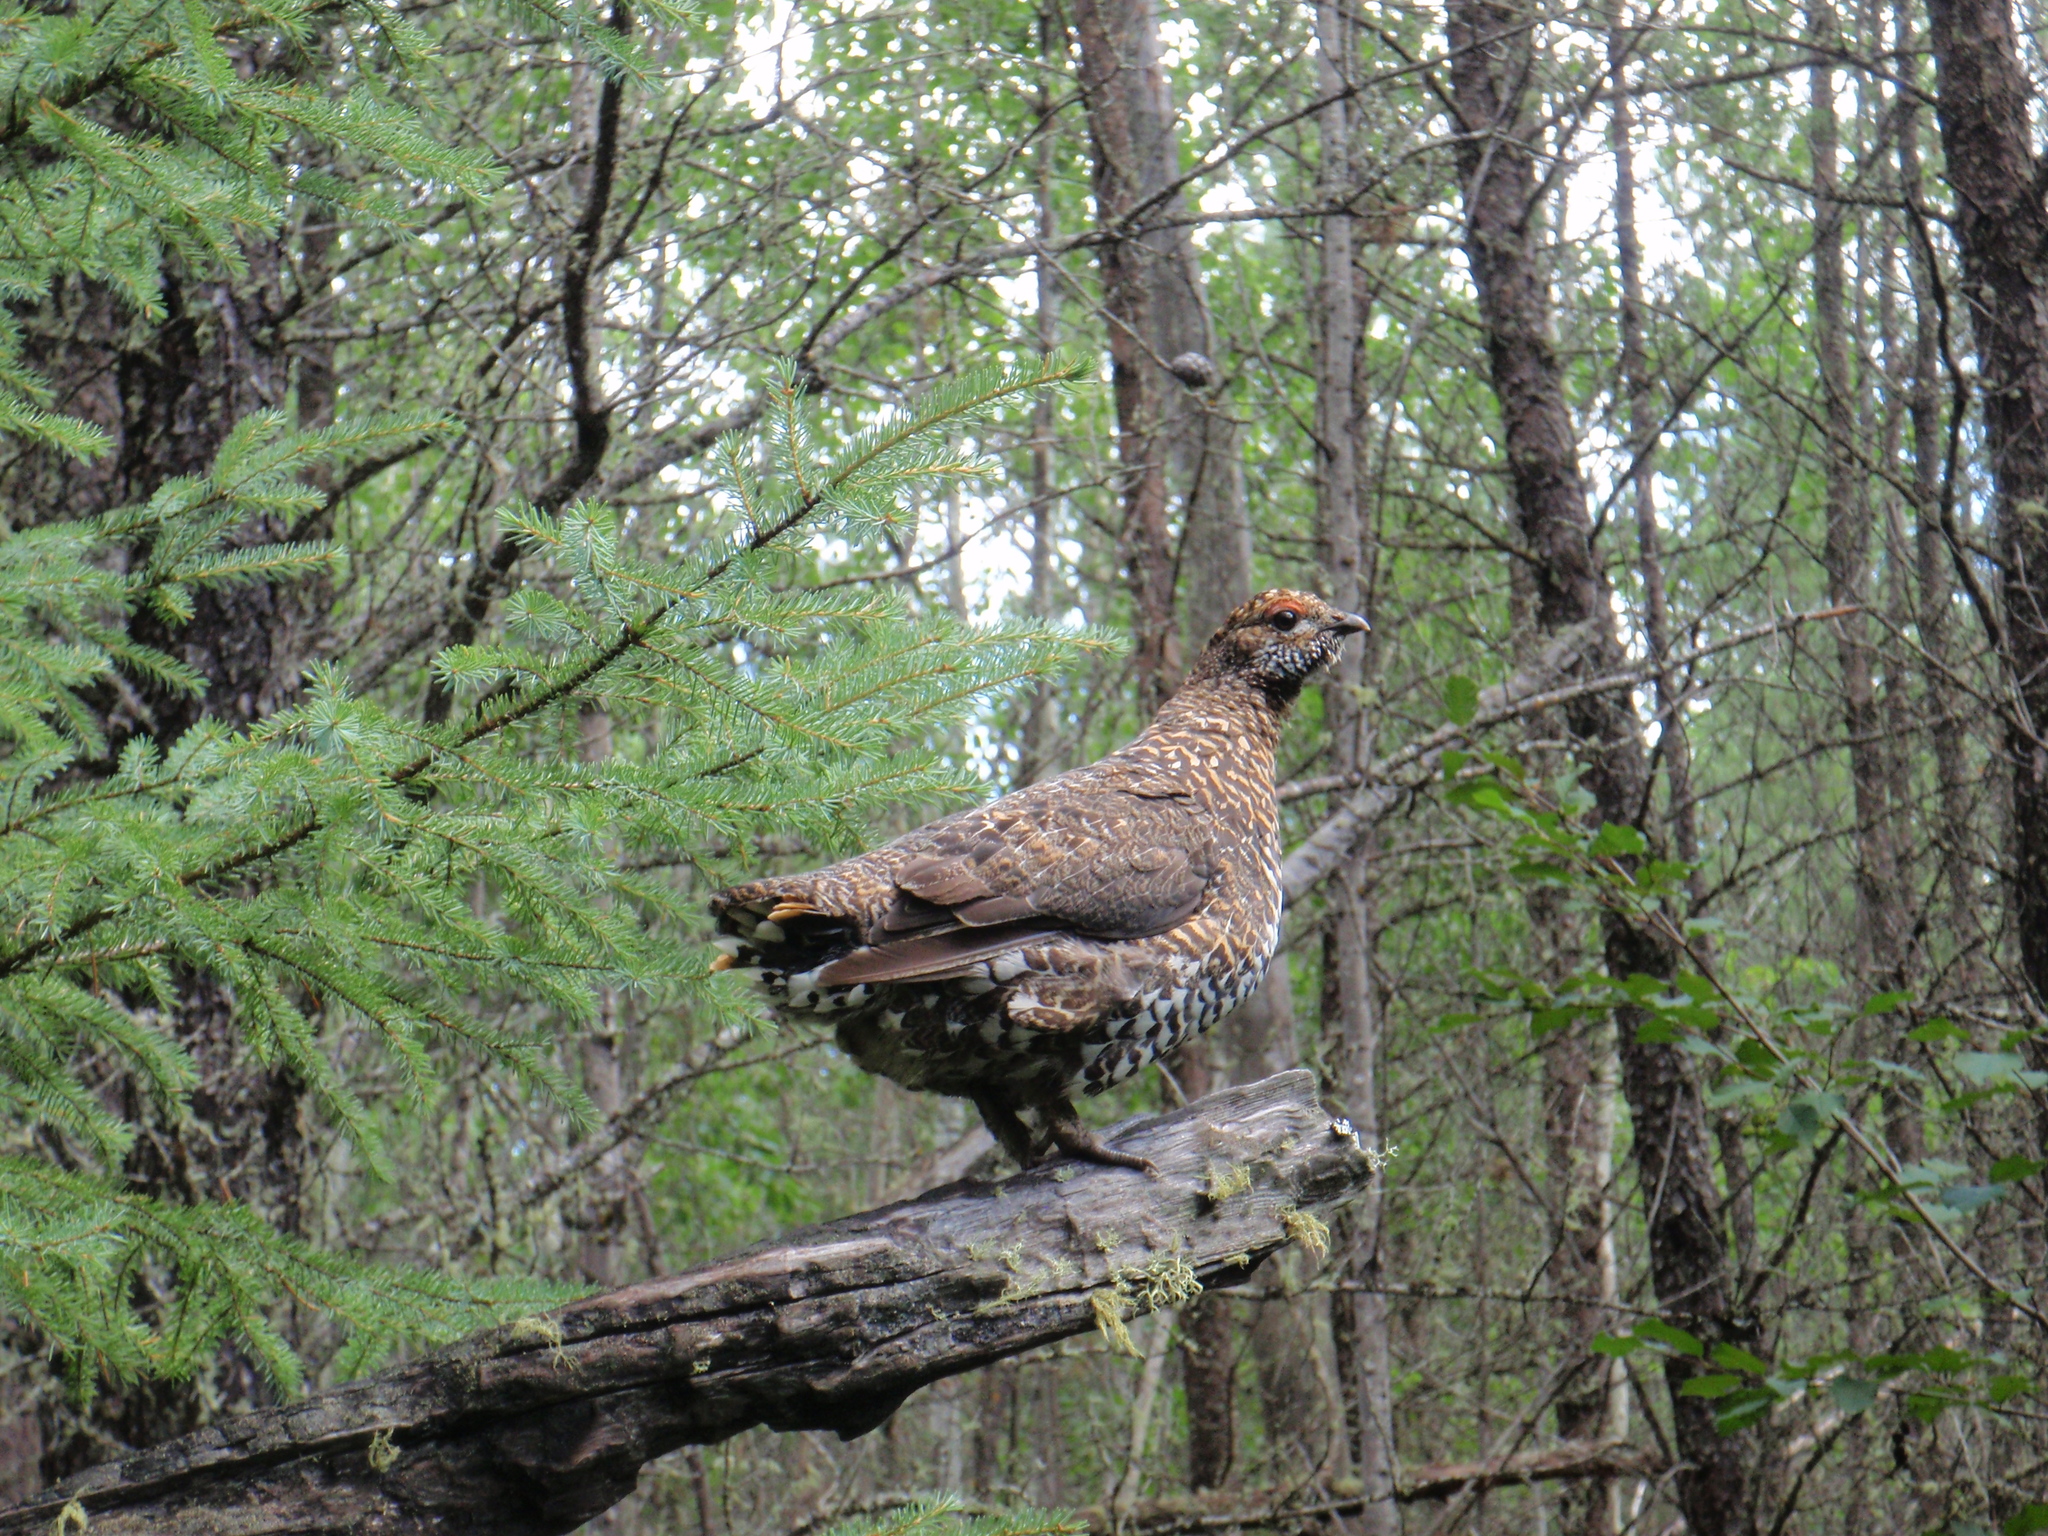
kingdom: Animalia
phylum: Chordata
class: Aves
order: Galliformes
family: Phasianidae
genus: Canachites
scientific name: Canachites canadensis
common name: Spruce grouse
